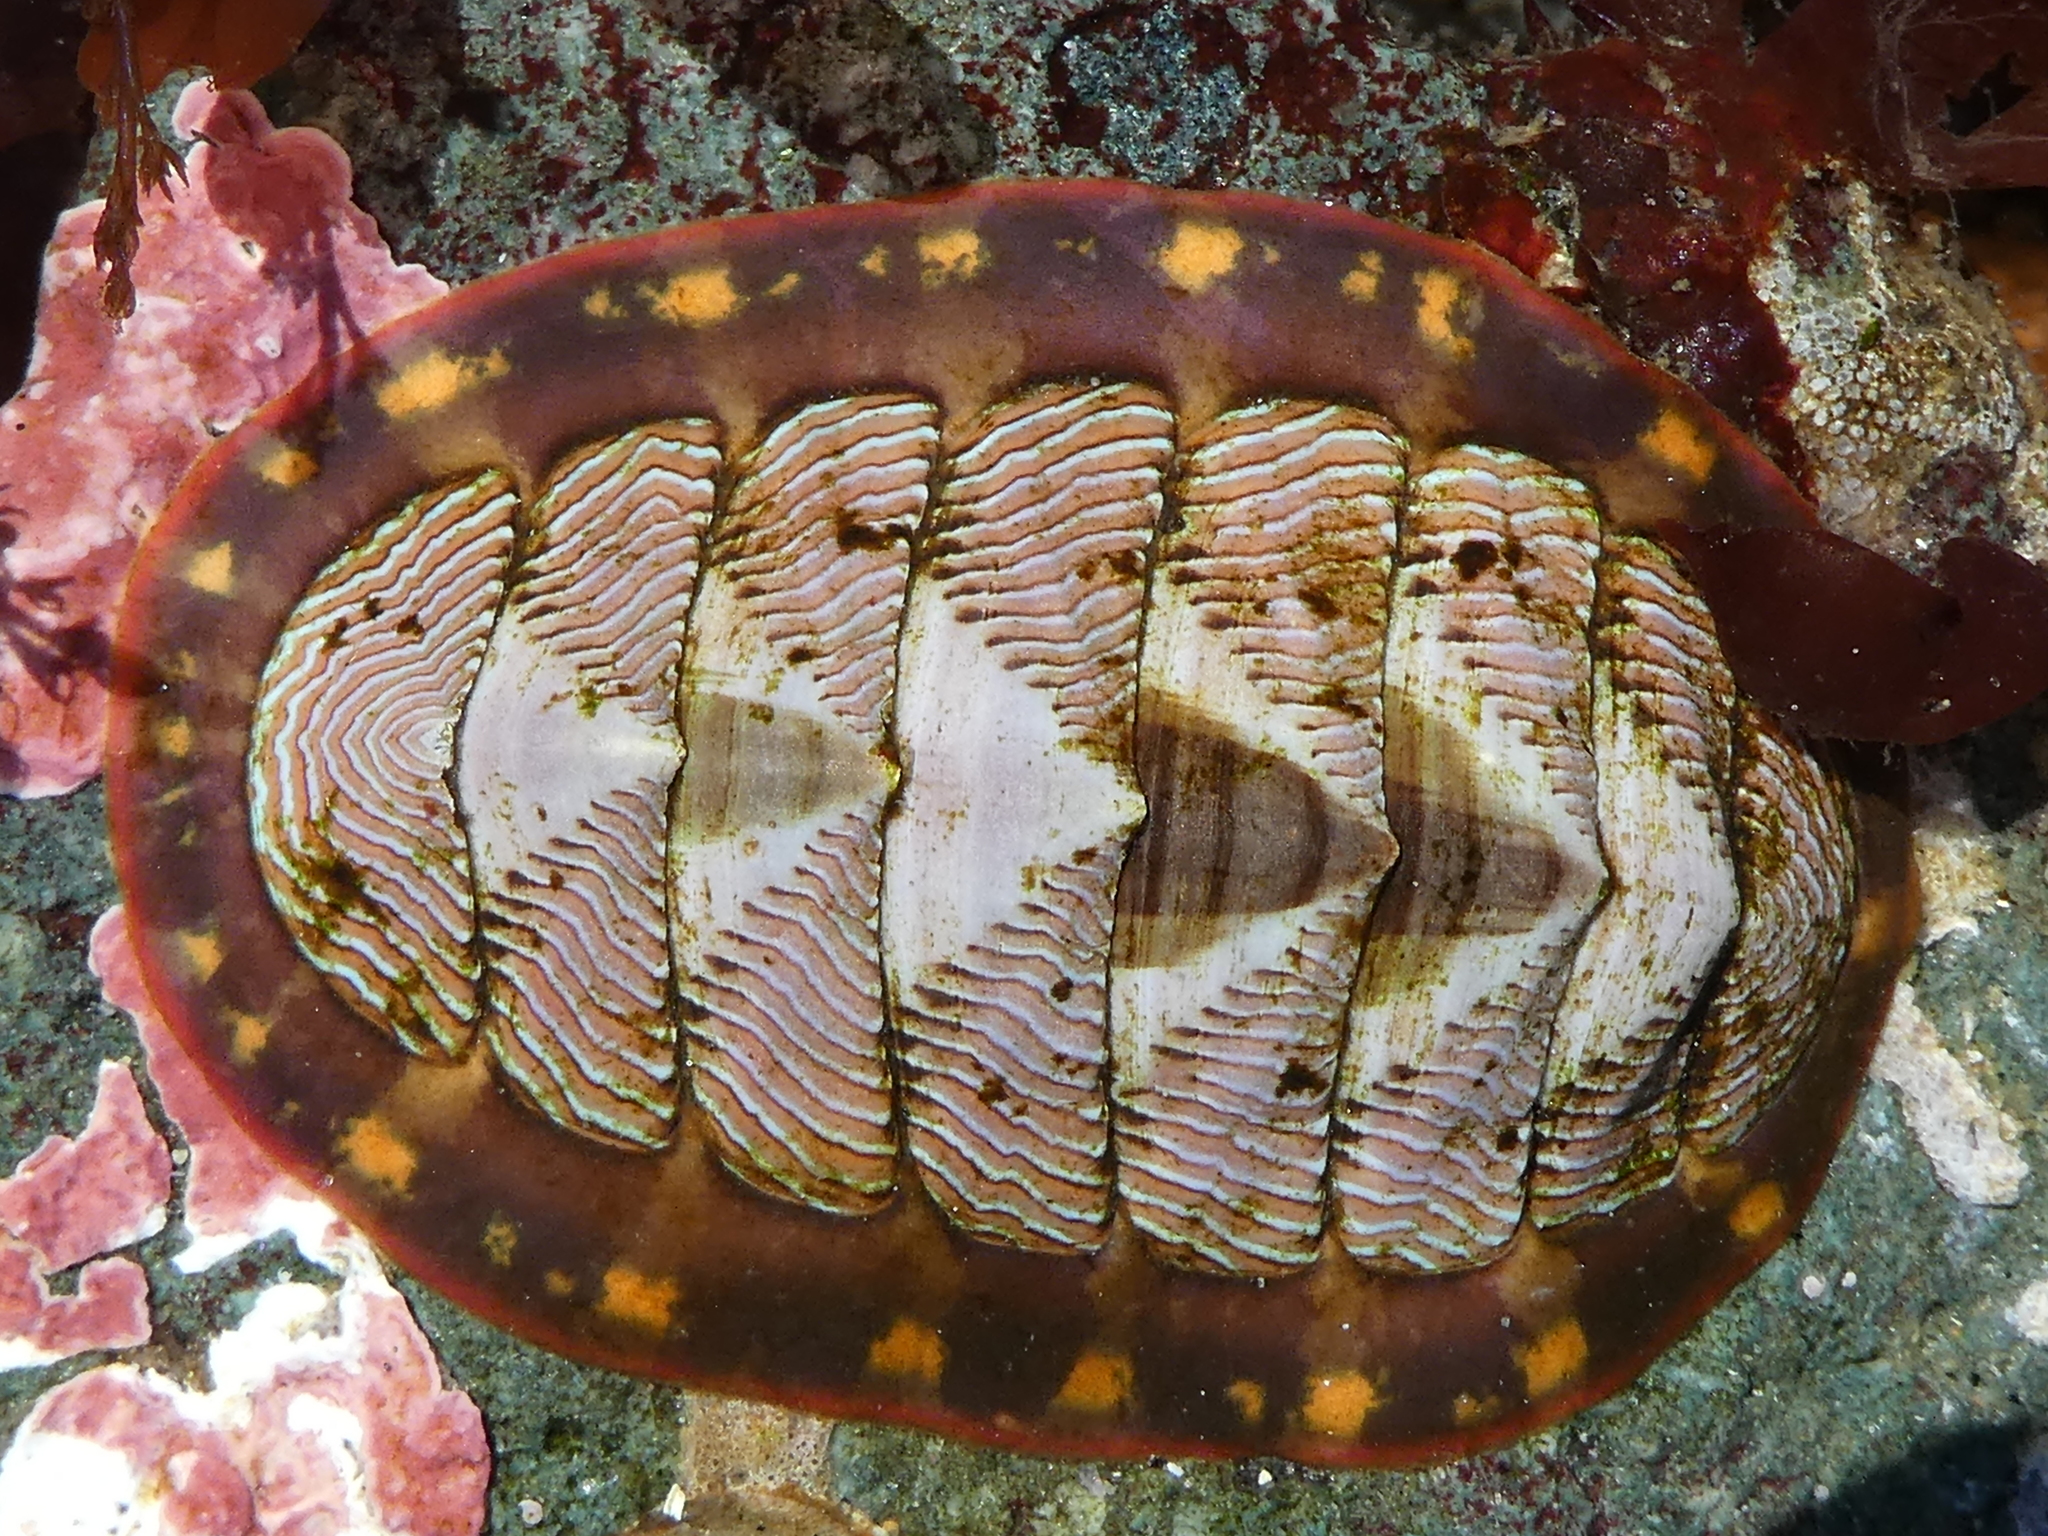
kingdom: Animalia
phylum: Mollusca
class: Polyplacophora
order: Chitonida
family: Tonicellidae
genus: Tonicella
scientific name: Tonicella lineata
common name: Lined chiton
